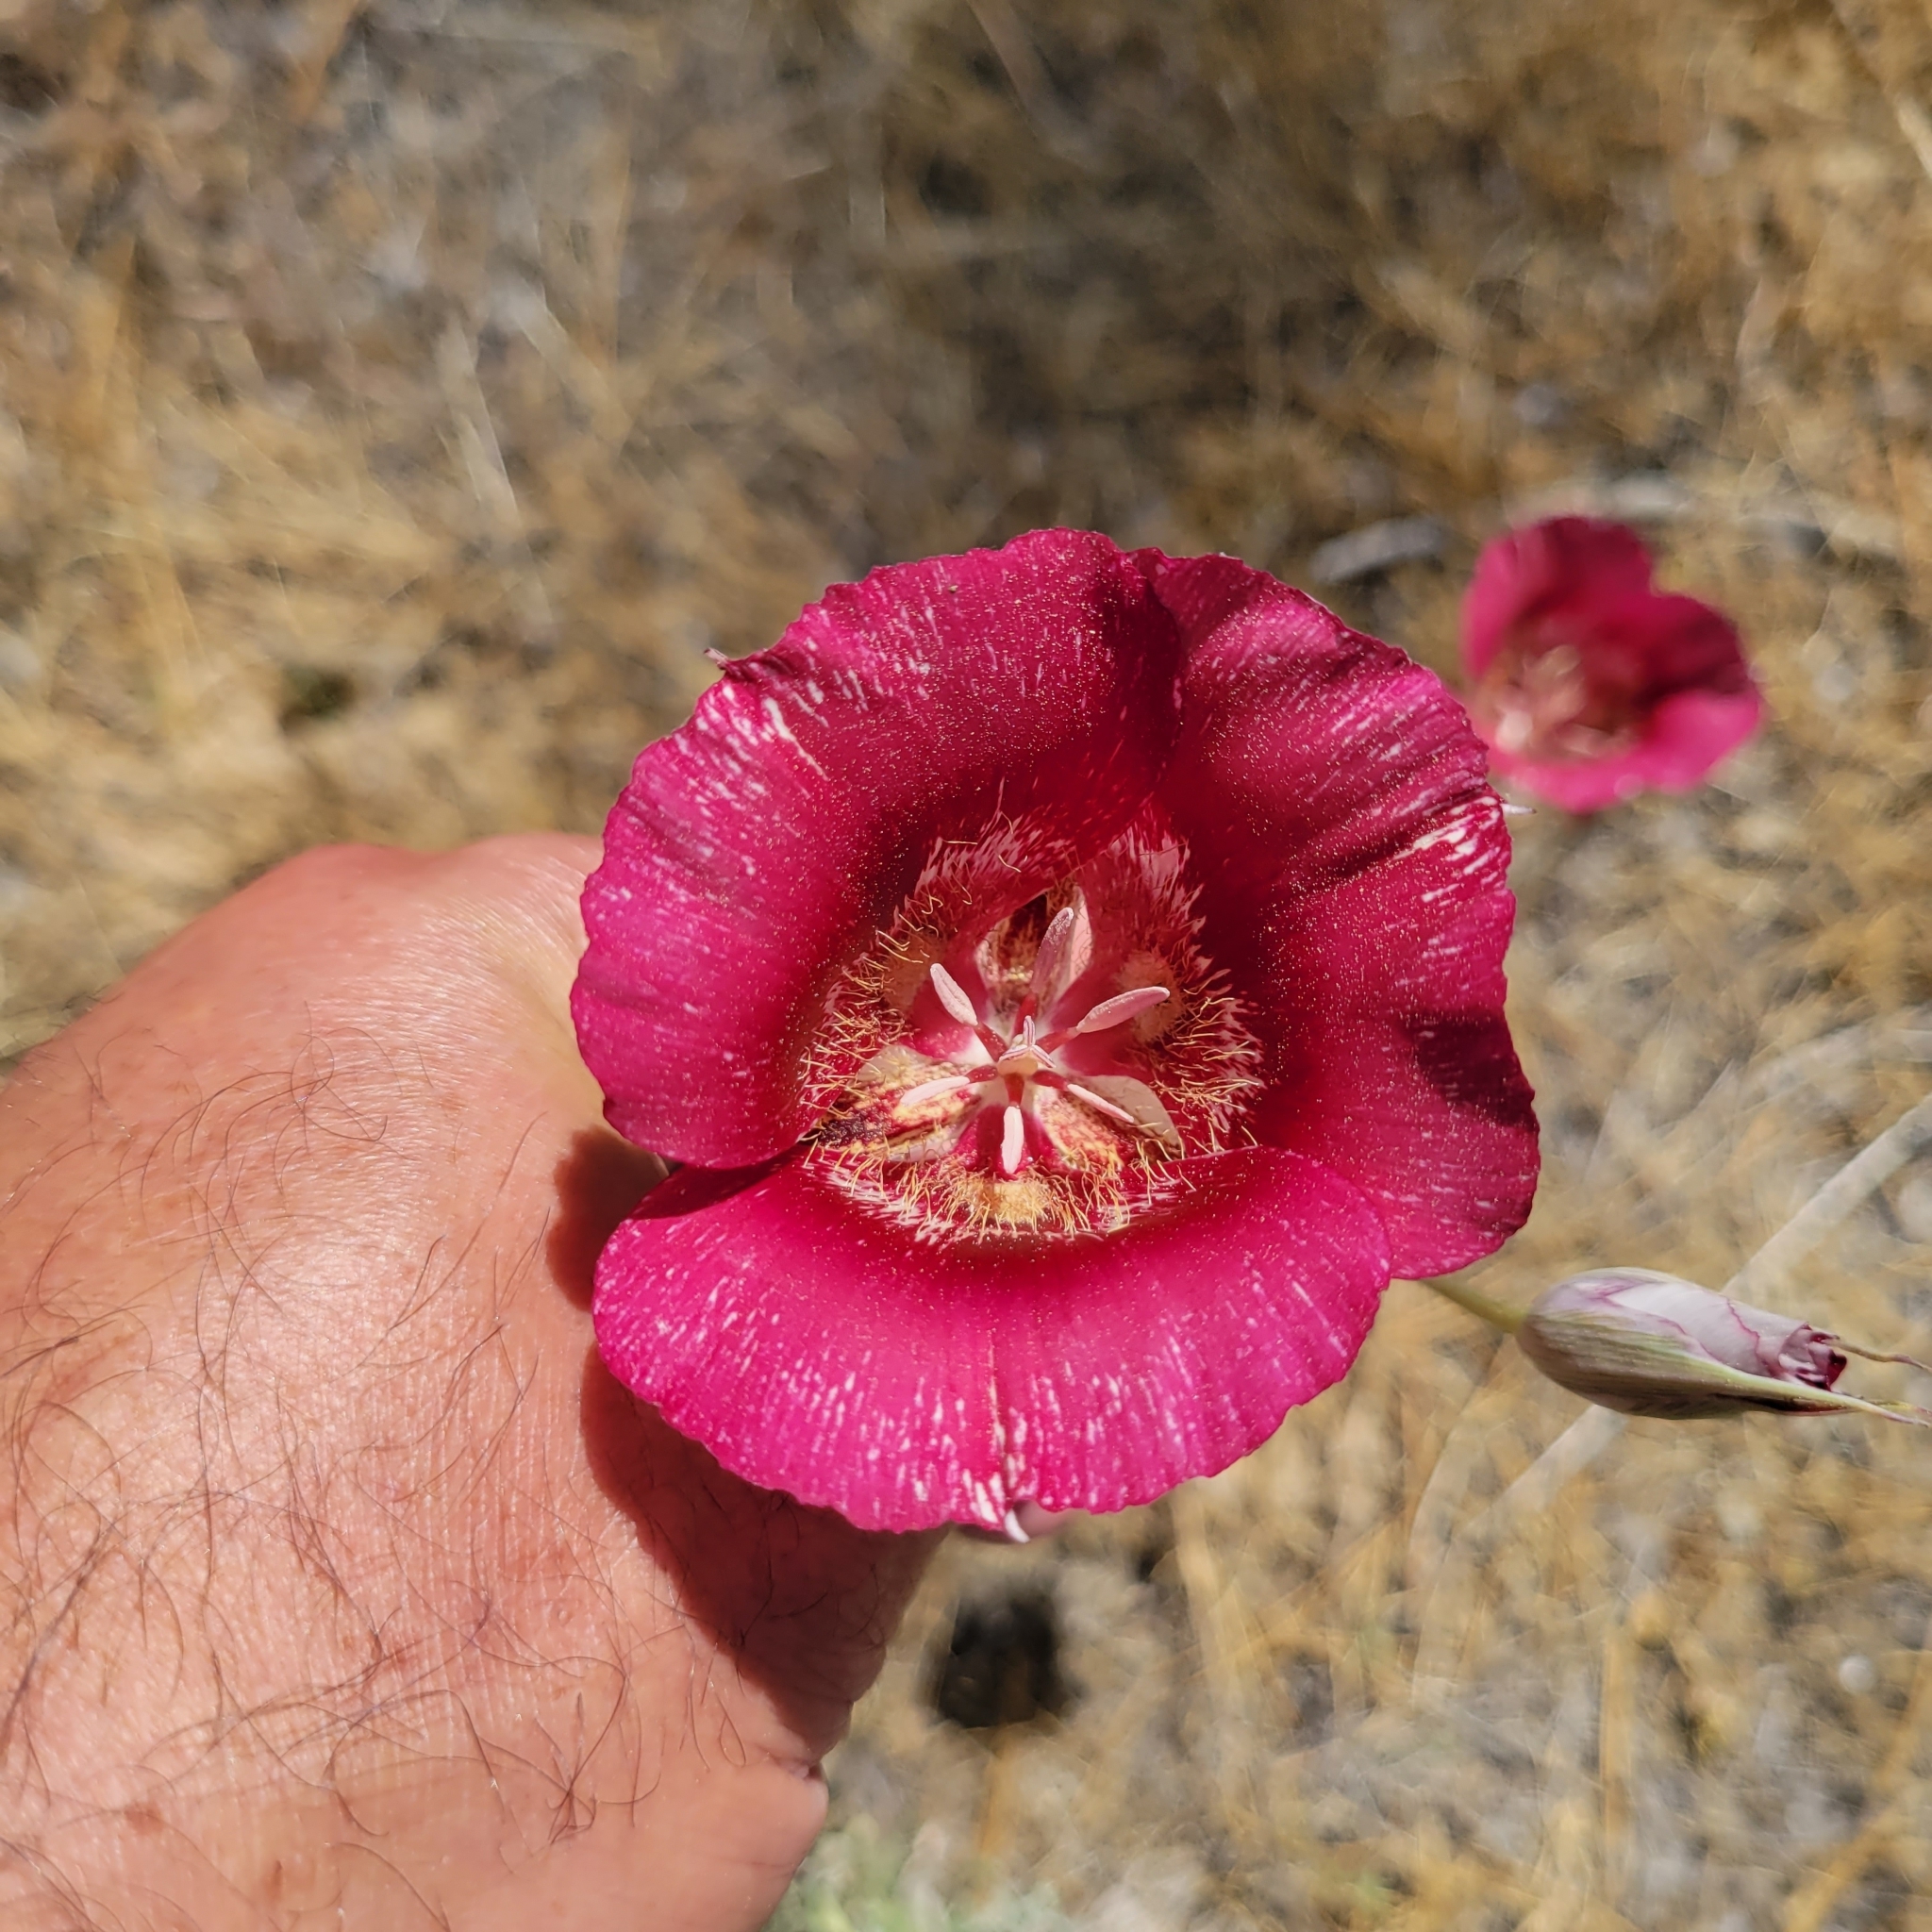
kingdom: Plantae
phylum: Tracheophyta
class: Liliopsida
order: Liliales
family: Liliaceae
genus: Calochortus
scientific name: Calochortus venustus
